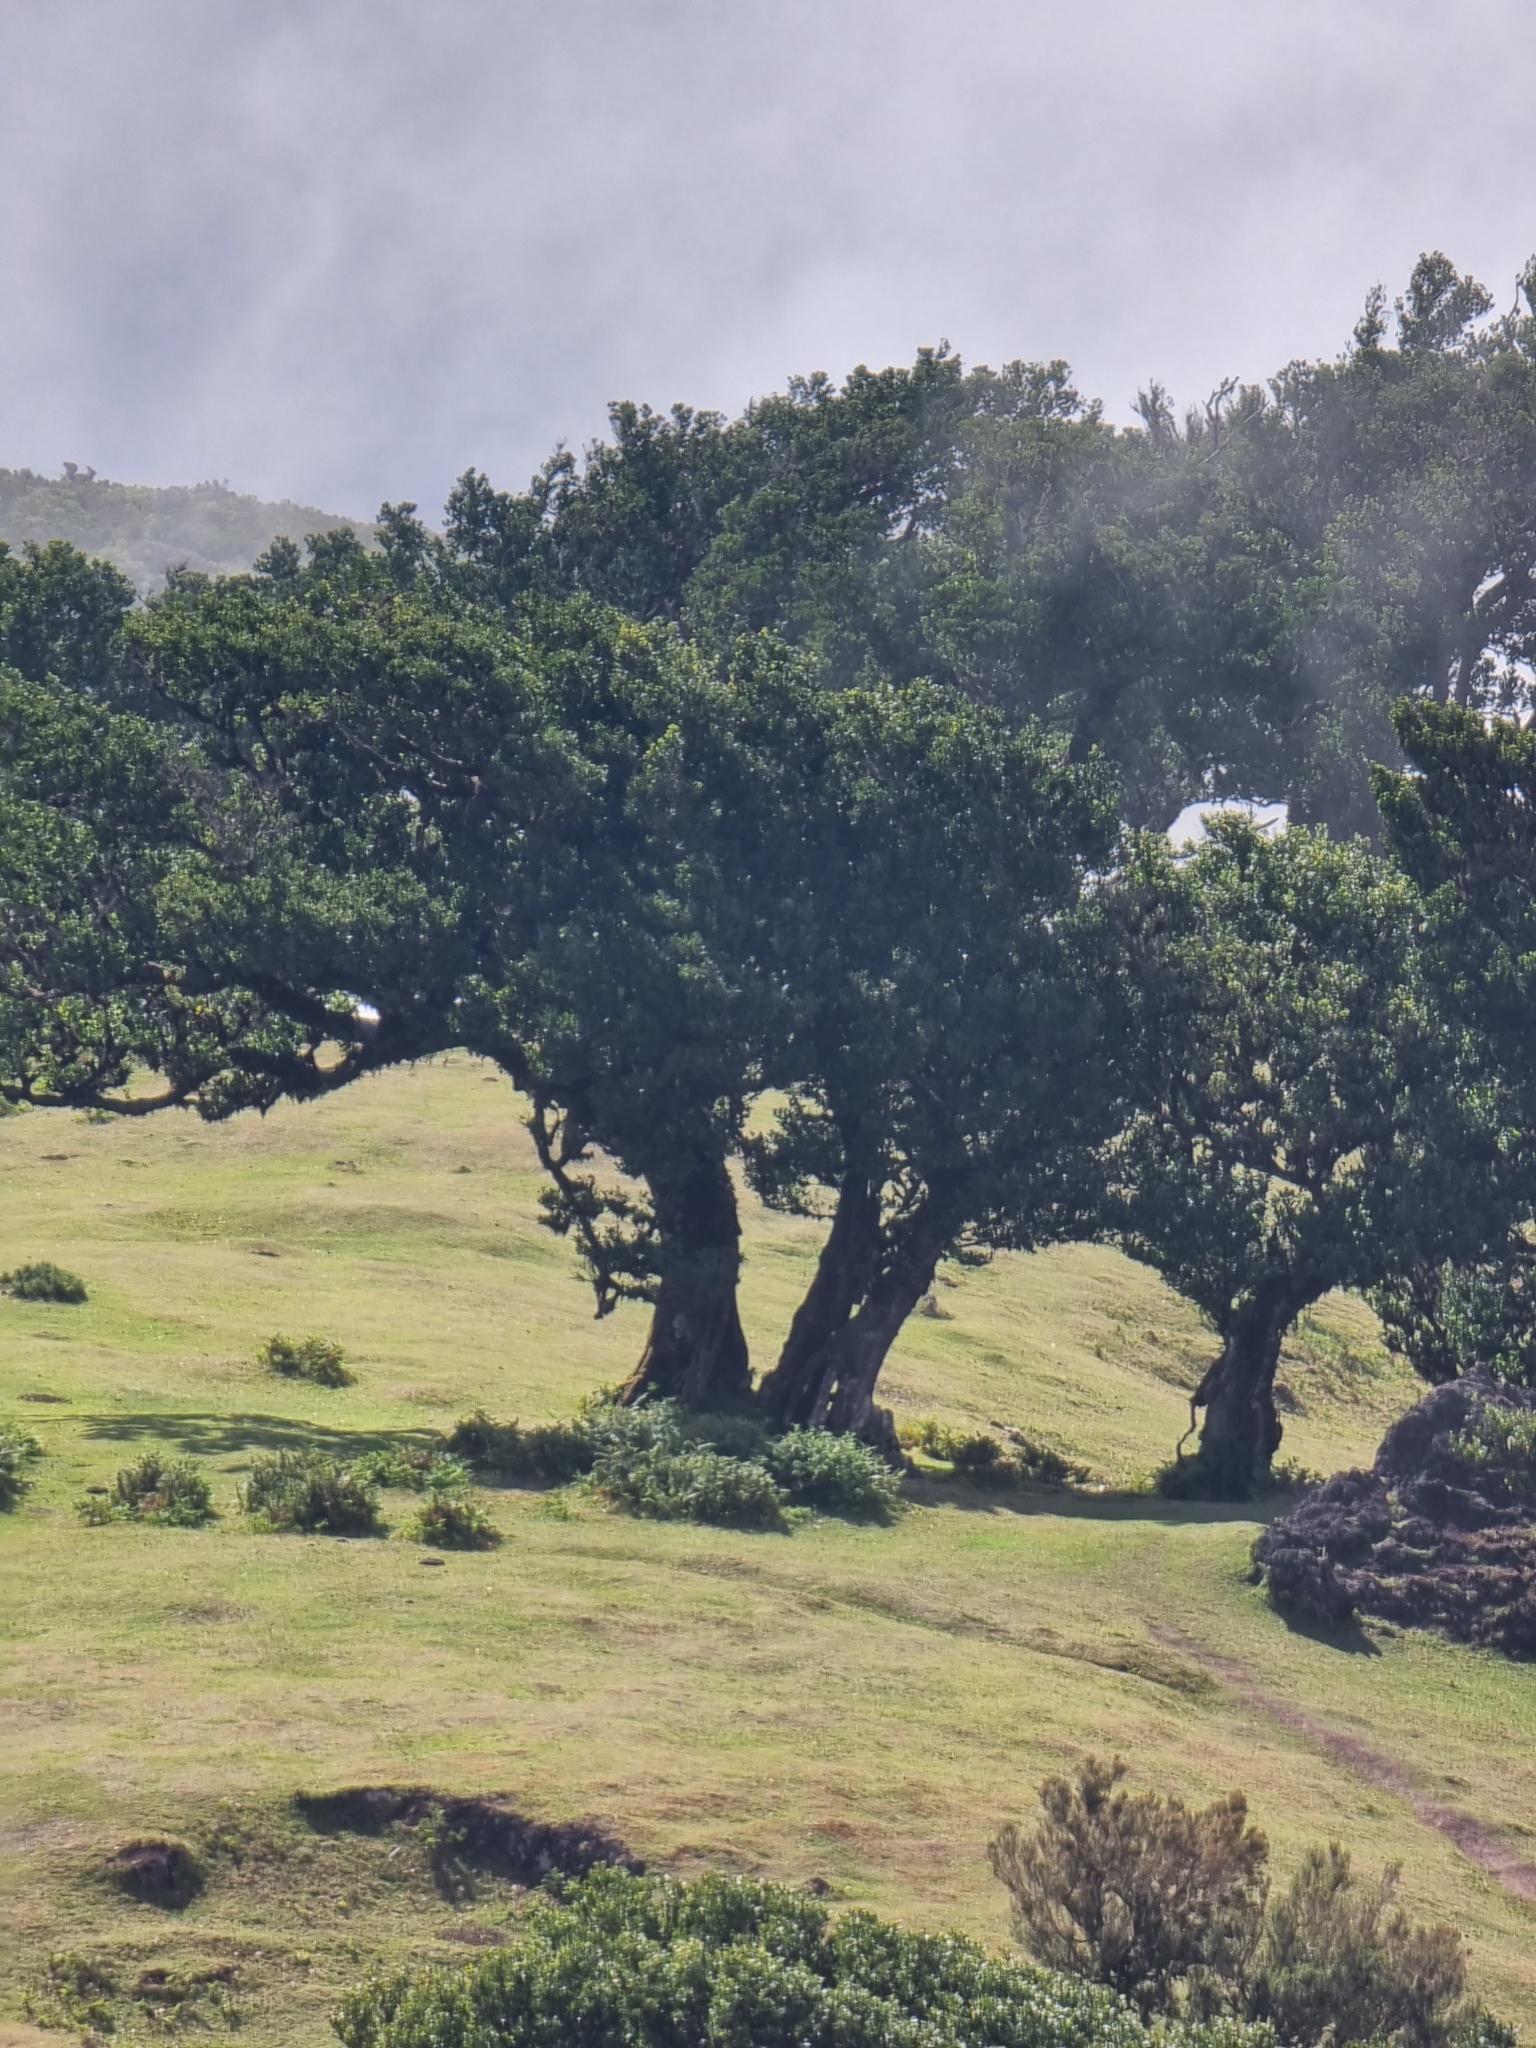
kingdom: Plantae
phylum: Tracheophyta
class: Magnoliopsida
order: Laurales
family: Lauraceae
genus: Mespilodaphne
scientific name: Mespilodaphne foetens
